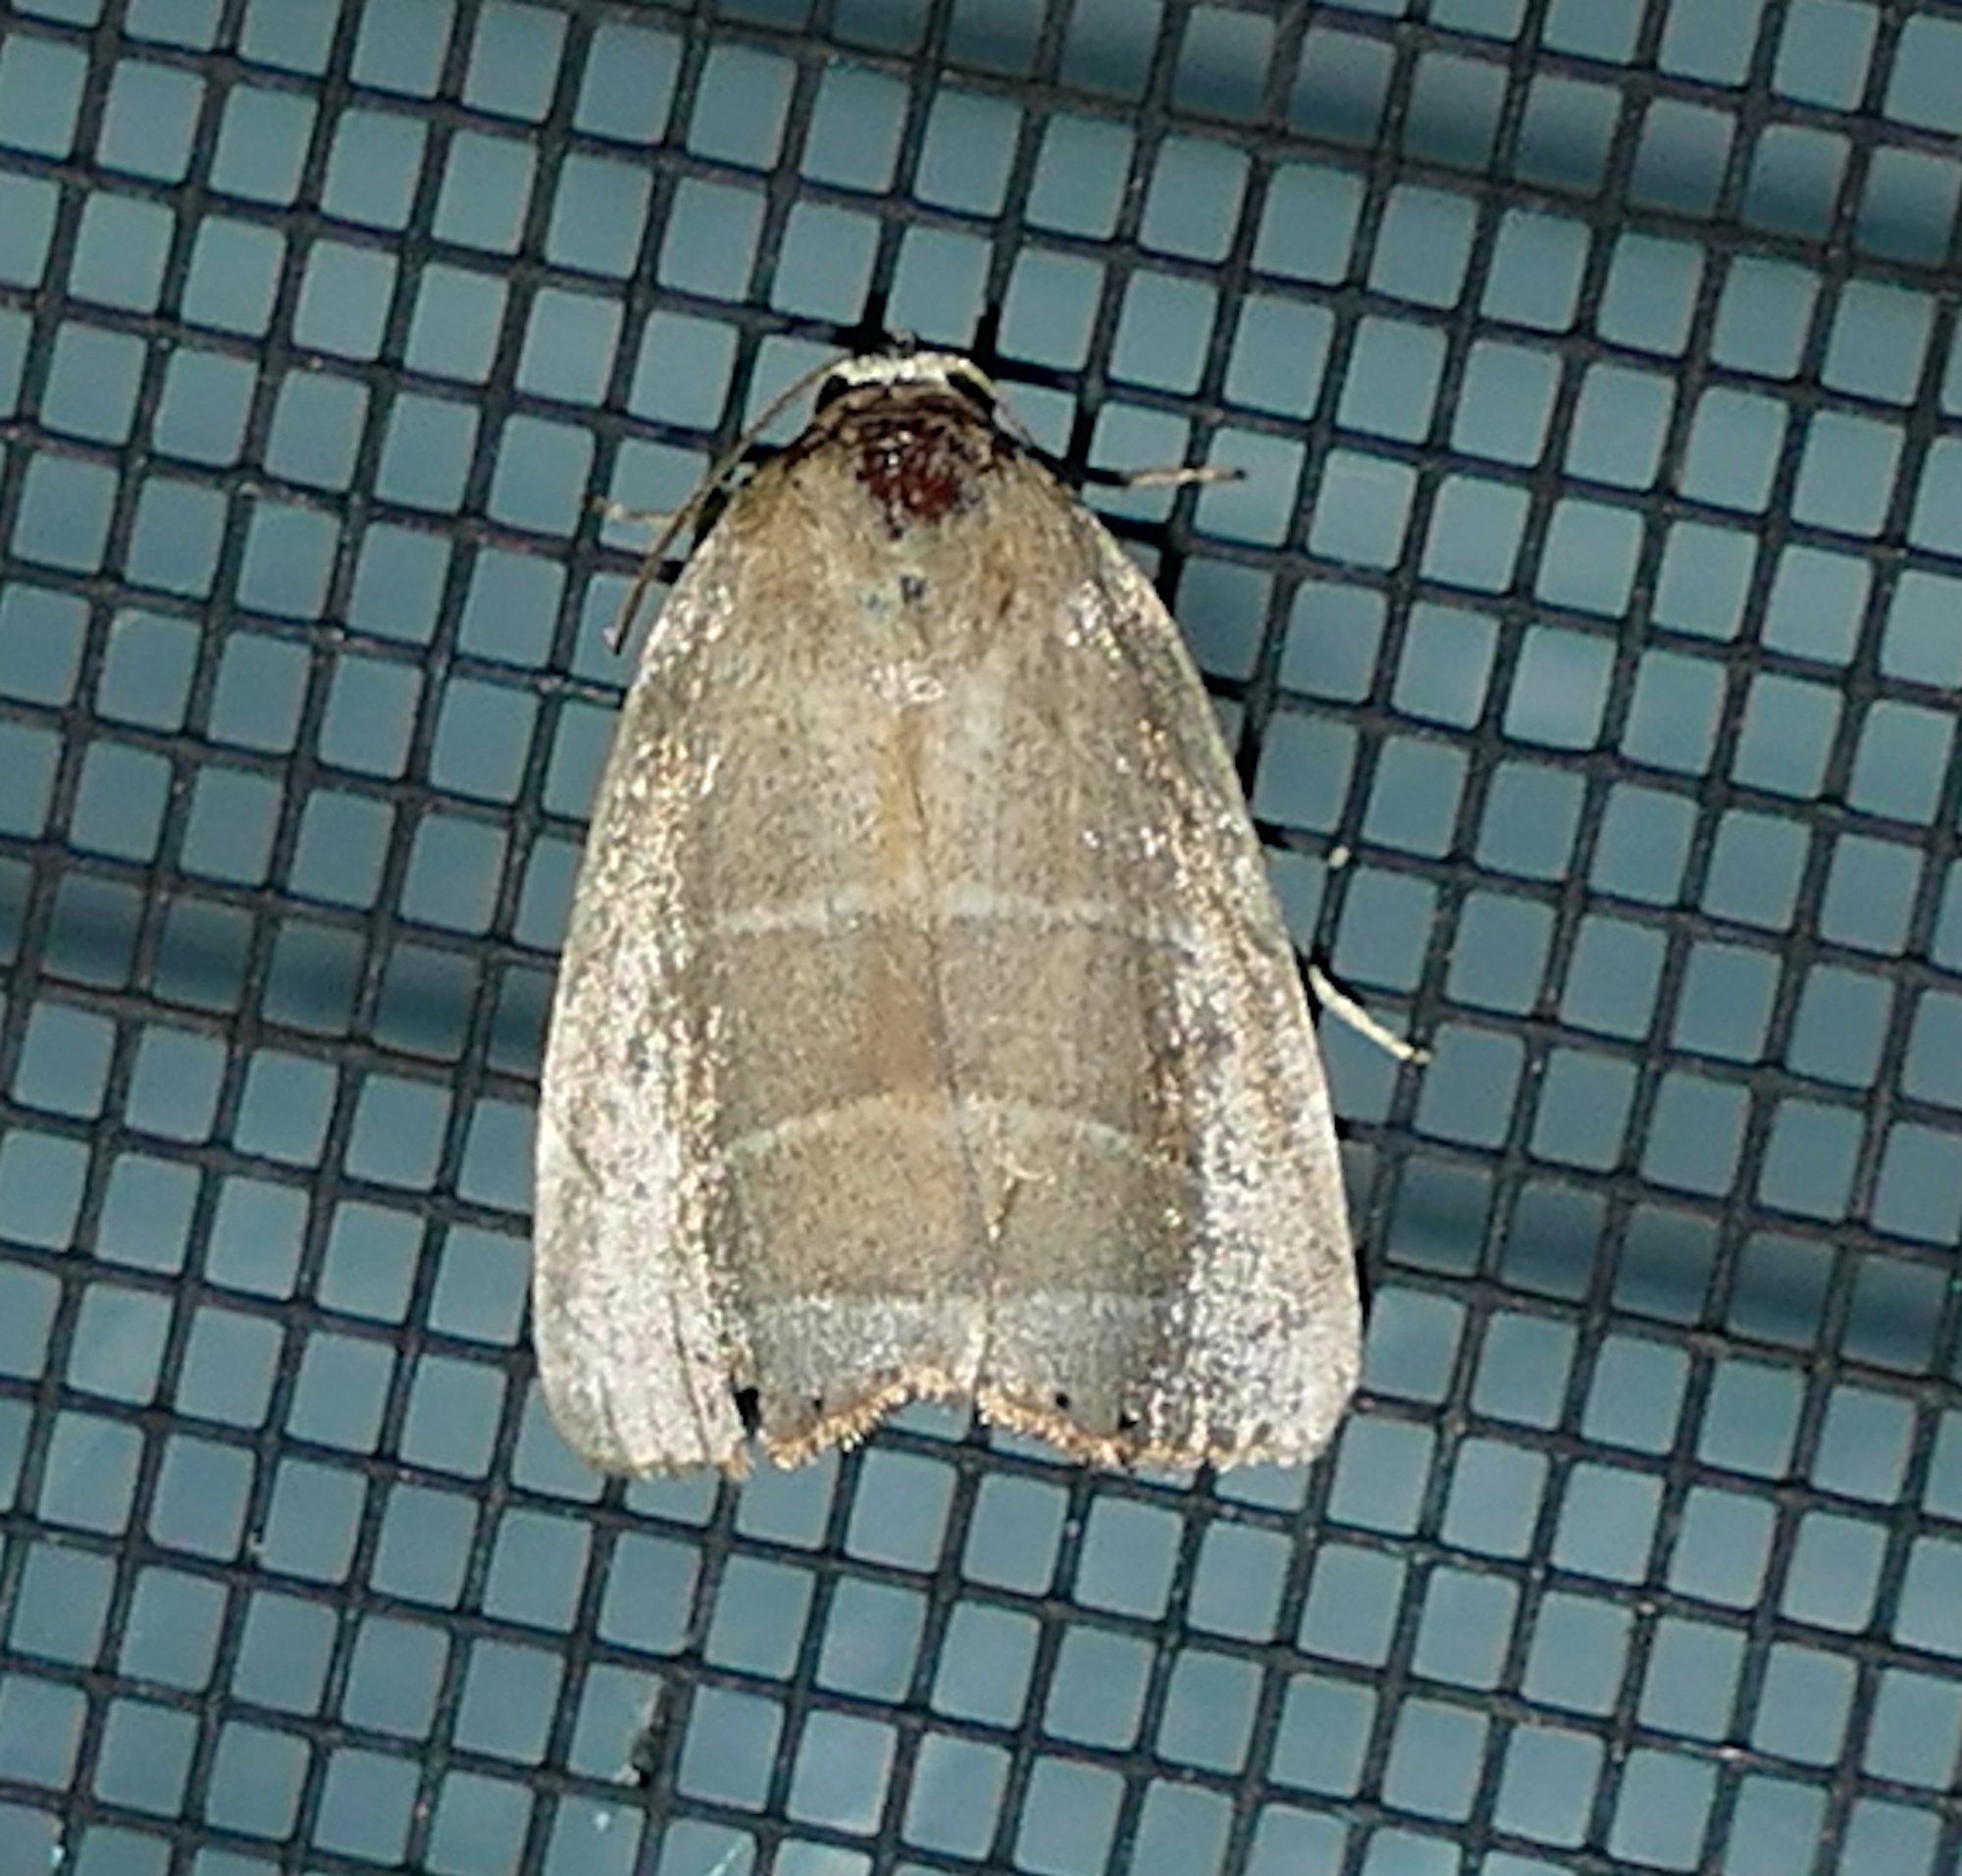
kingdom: Animalia
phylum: Arthropoda
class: Insecta
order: Lepidoptera
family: Noctuidae
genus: Bagisara
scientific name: Bagisara rectifascia
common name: Straight lined mallow moth
